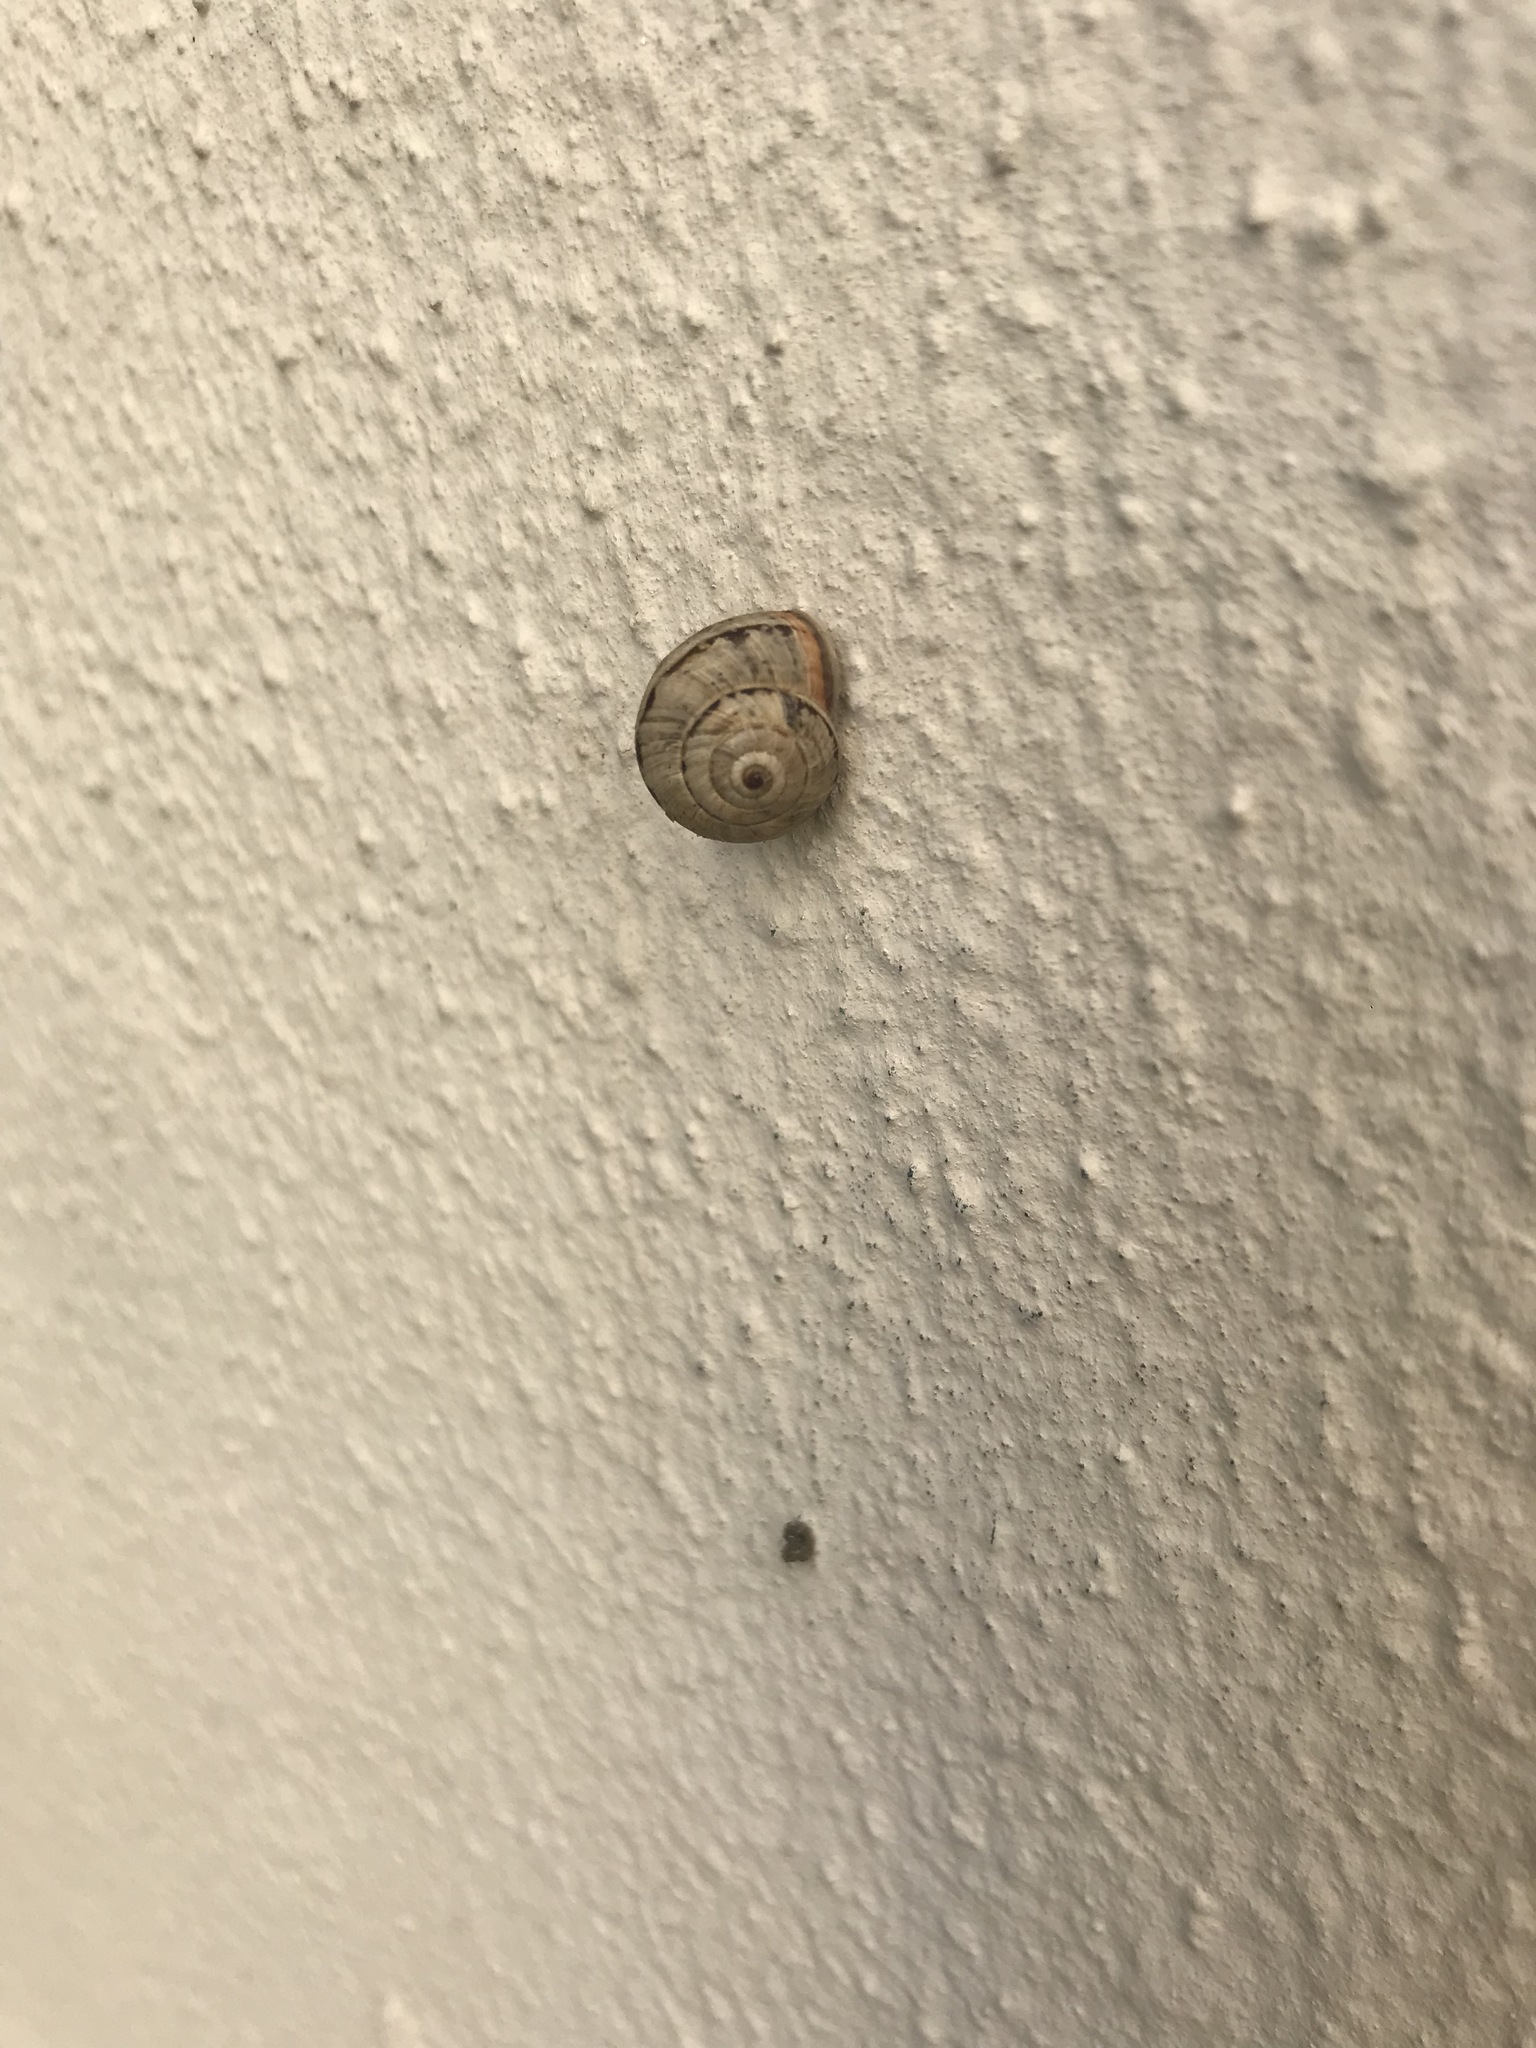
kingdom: Animalia
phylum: Mollusca
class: Gastropoda
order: Stylommatophora
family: Geomitridae
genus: Cernuella
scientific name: Cernuella virgata
